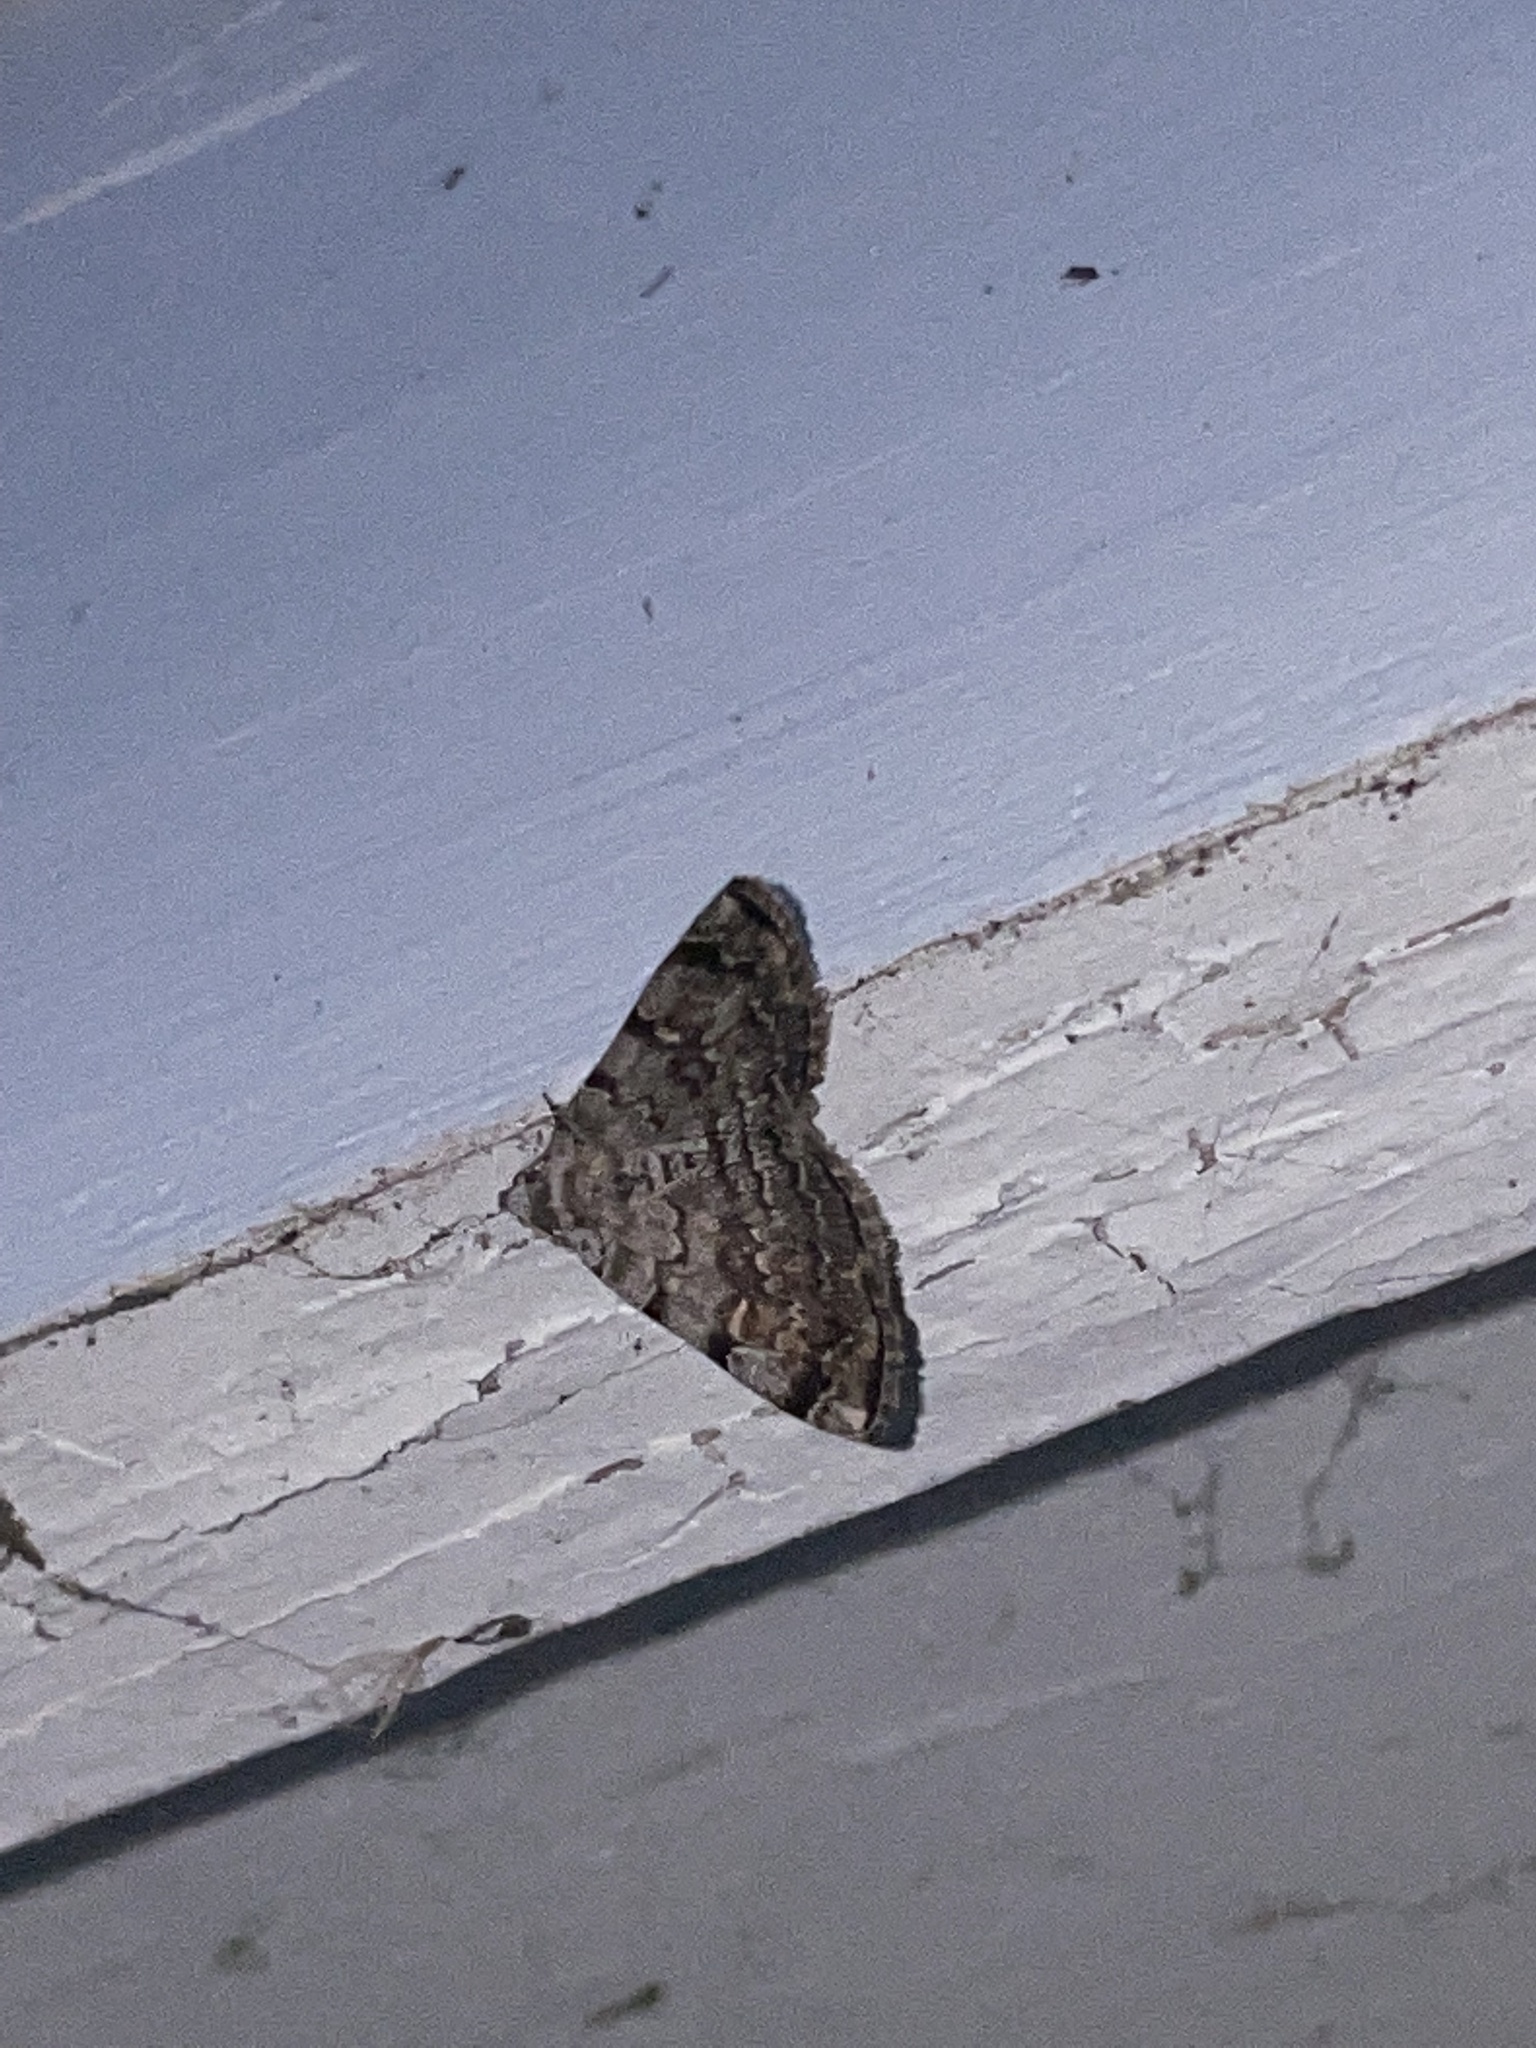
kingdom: Animalia
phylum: Arthropoda
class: Insecta
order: Lepidoptera
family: Erebidae
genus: Idia
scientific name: Idia americalis
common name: American idia moth
